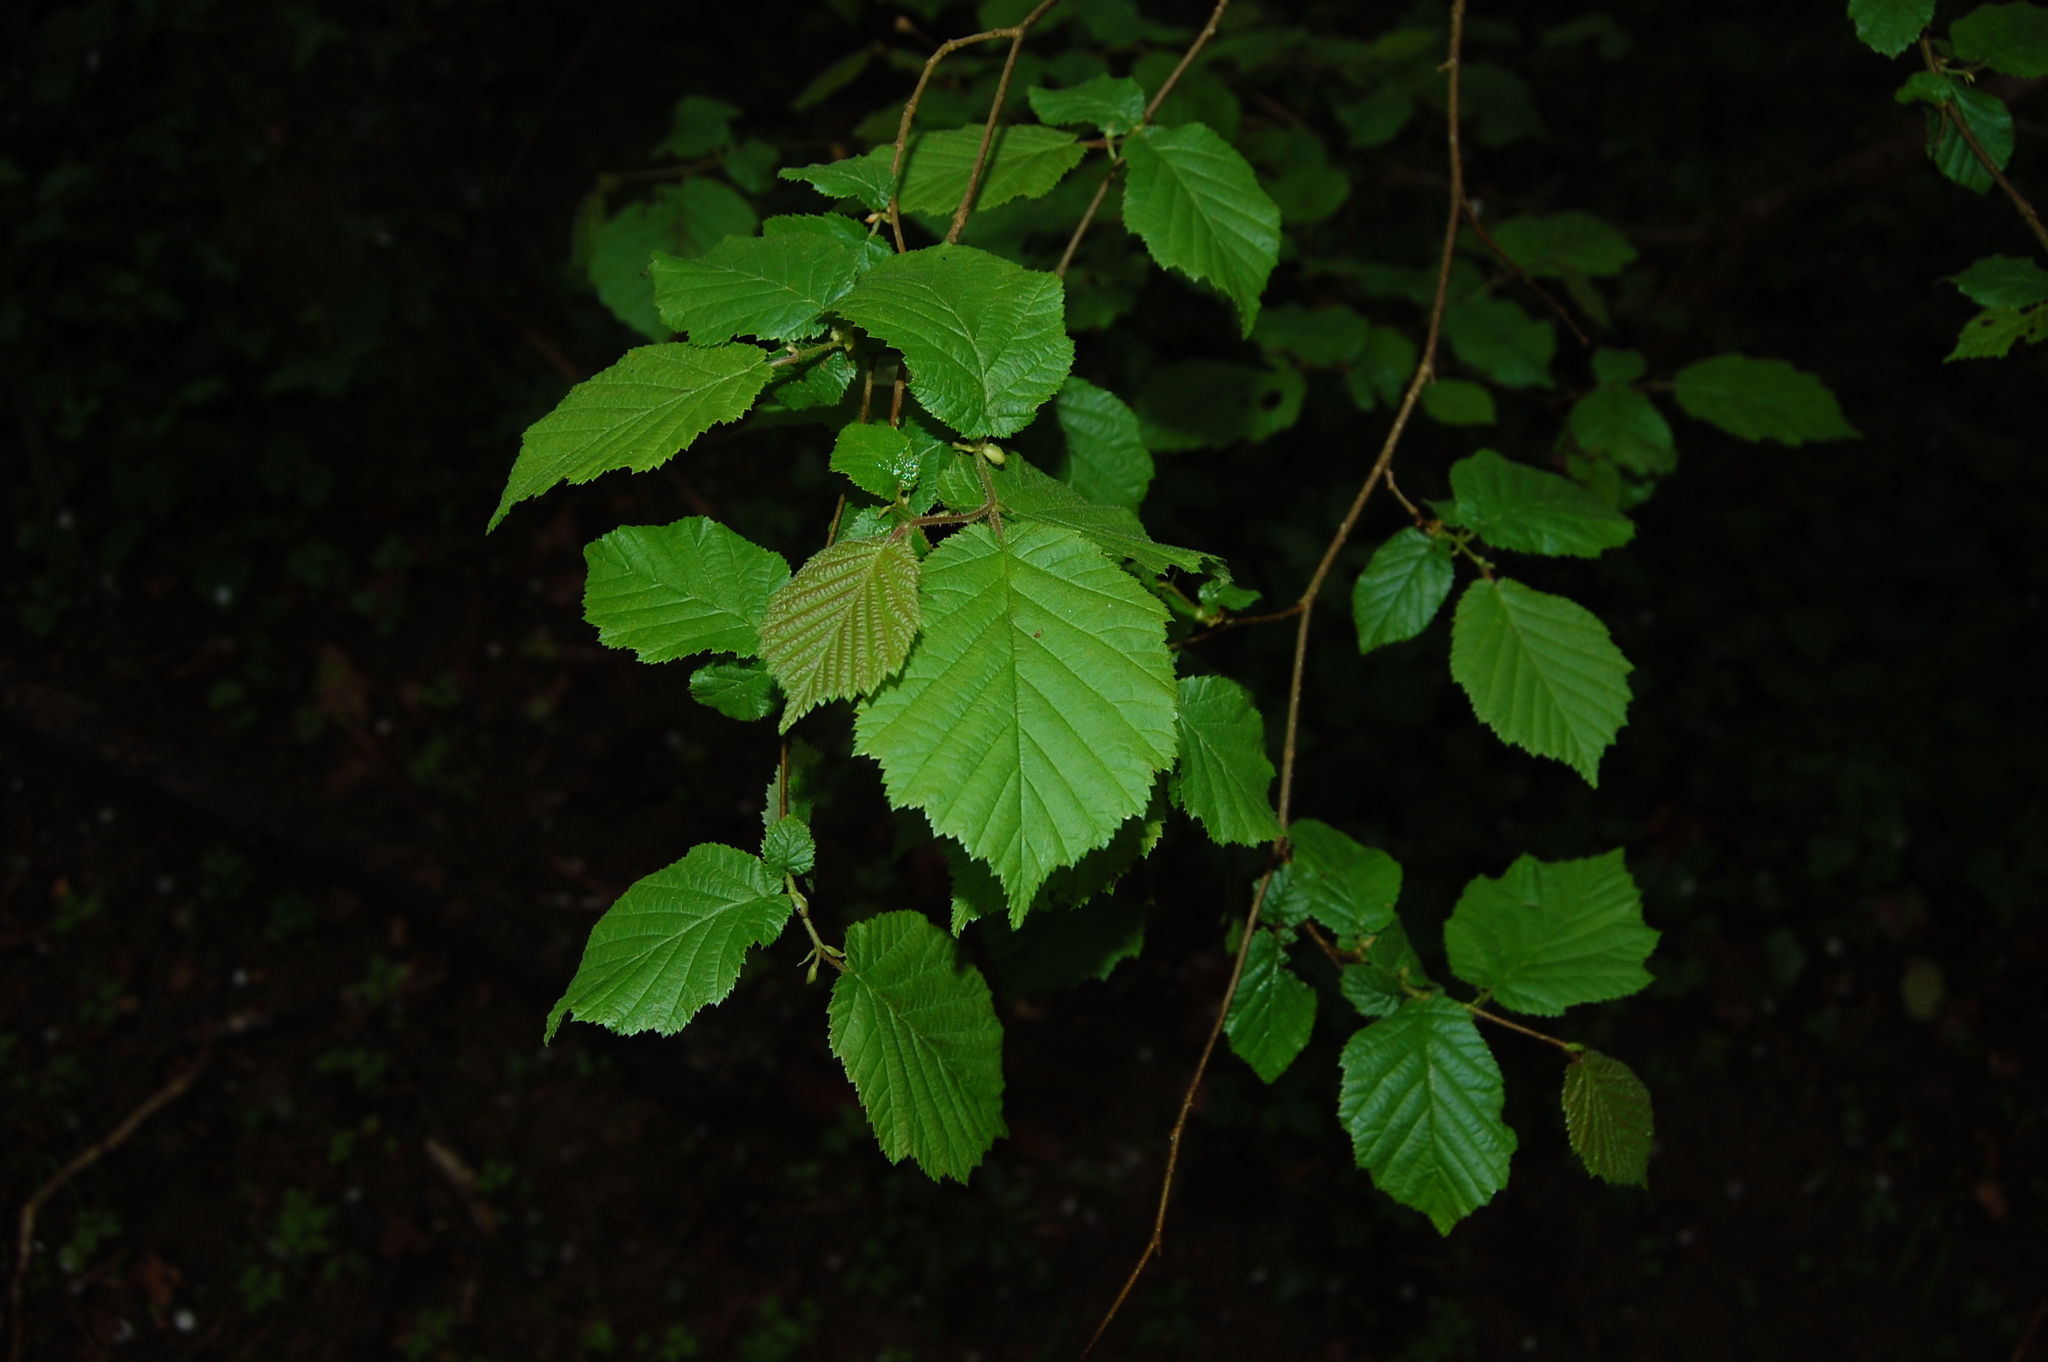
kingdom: Plantae
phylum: Tracheophyta
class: Magnoliopsida
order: Fagales
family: Betulaceae
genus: Corylus
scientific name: Corylus avellana
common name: European hazel
